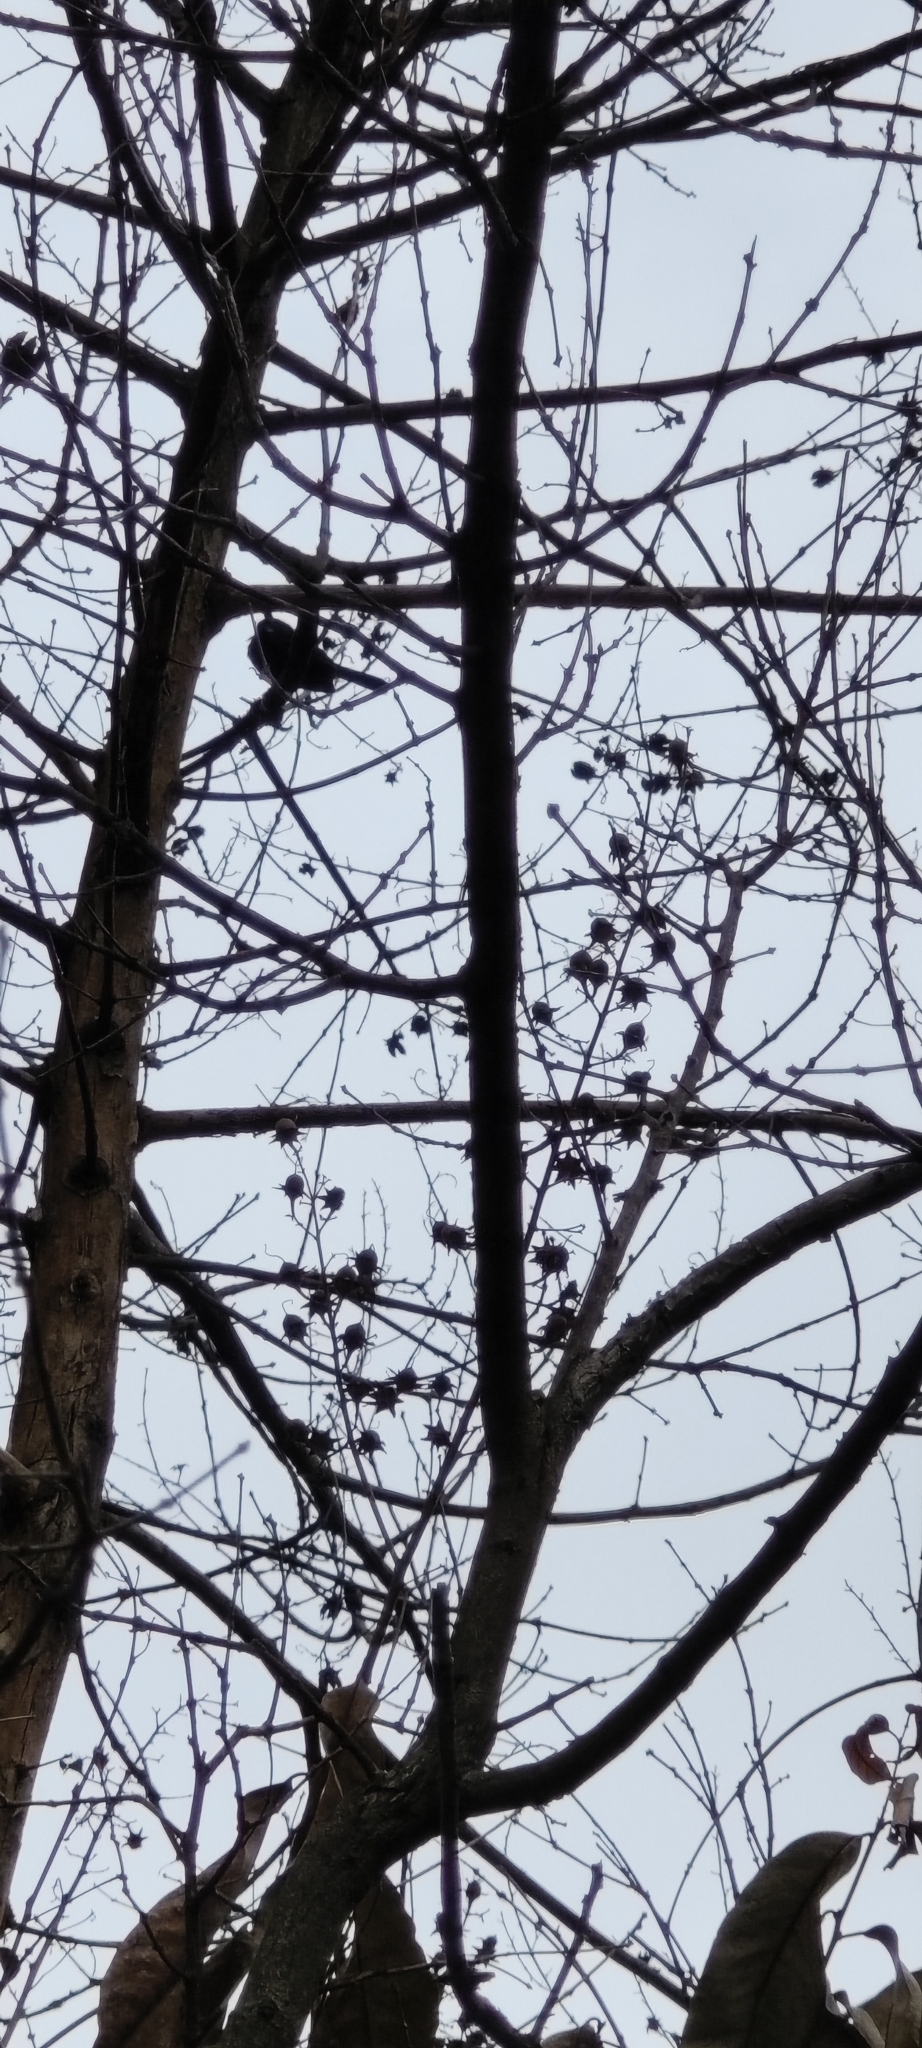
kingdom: Animalia
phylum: Chordata
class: Aves
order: Passeriformes
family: Muscicapidae
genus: Saxicoloides
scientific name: Saxicoloides fulicatus
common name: Indian robin
